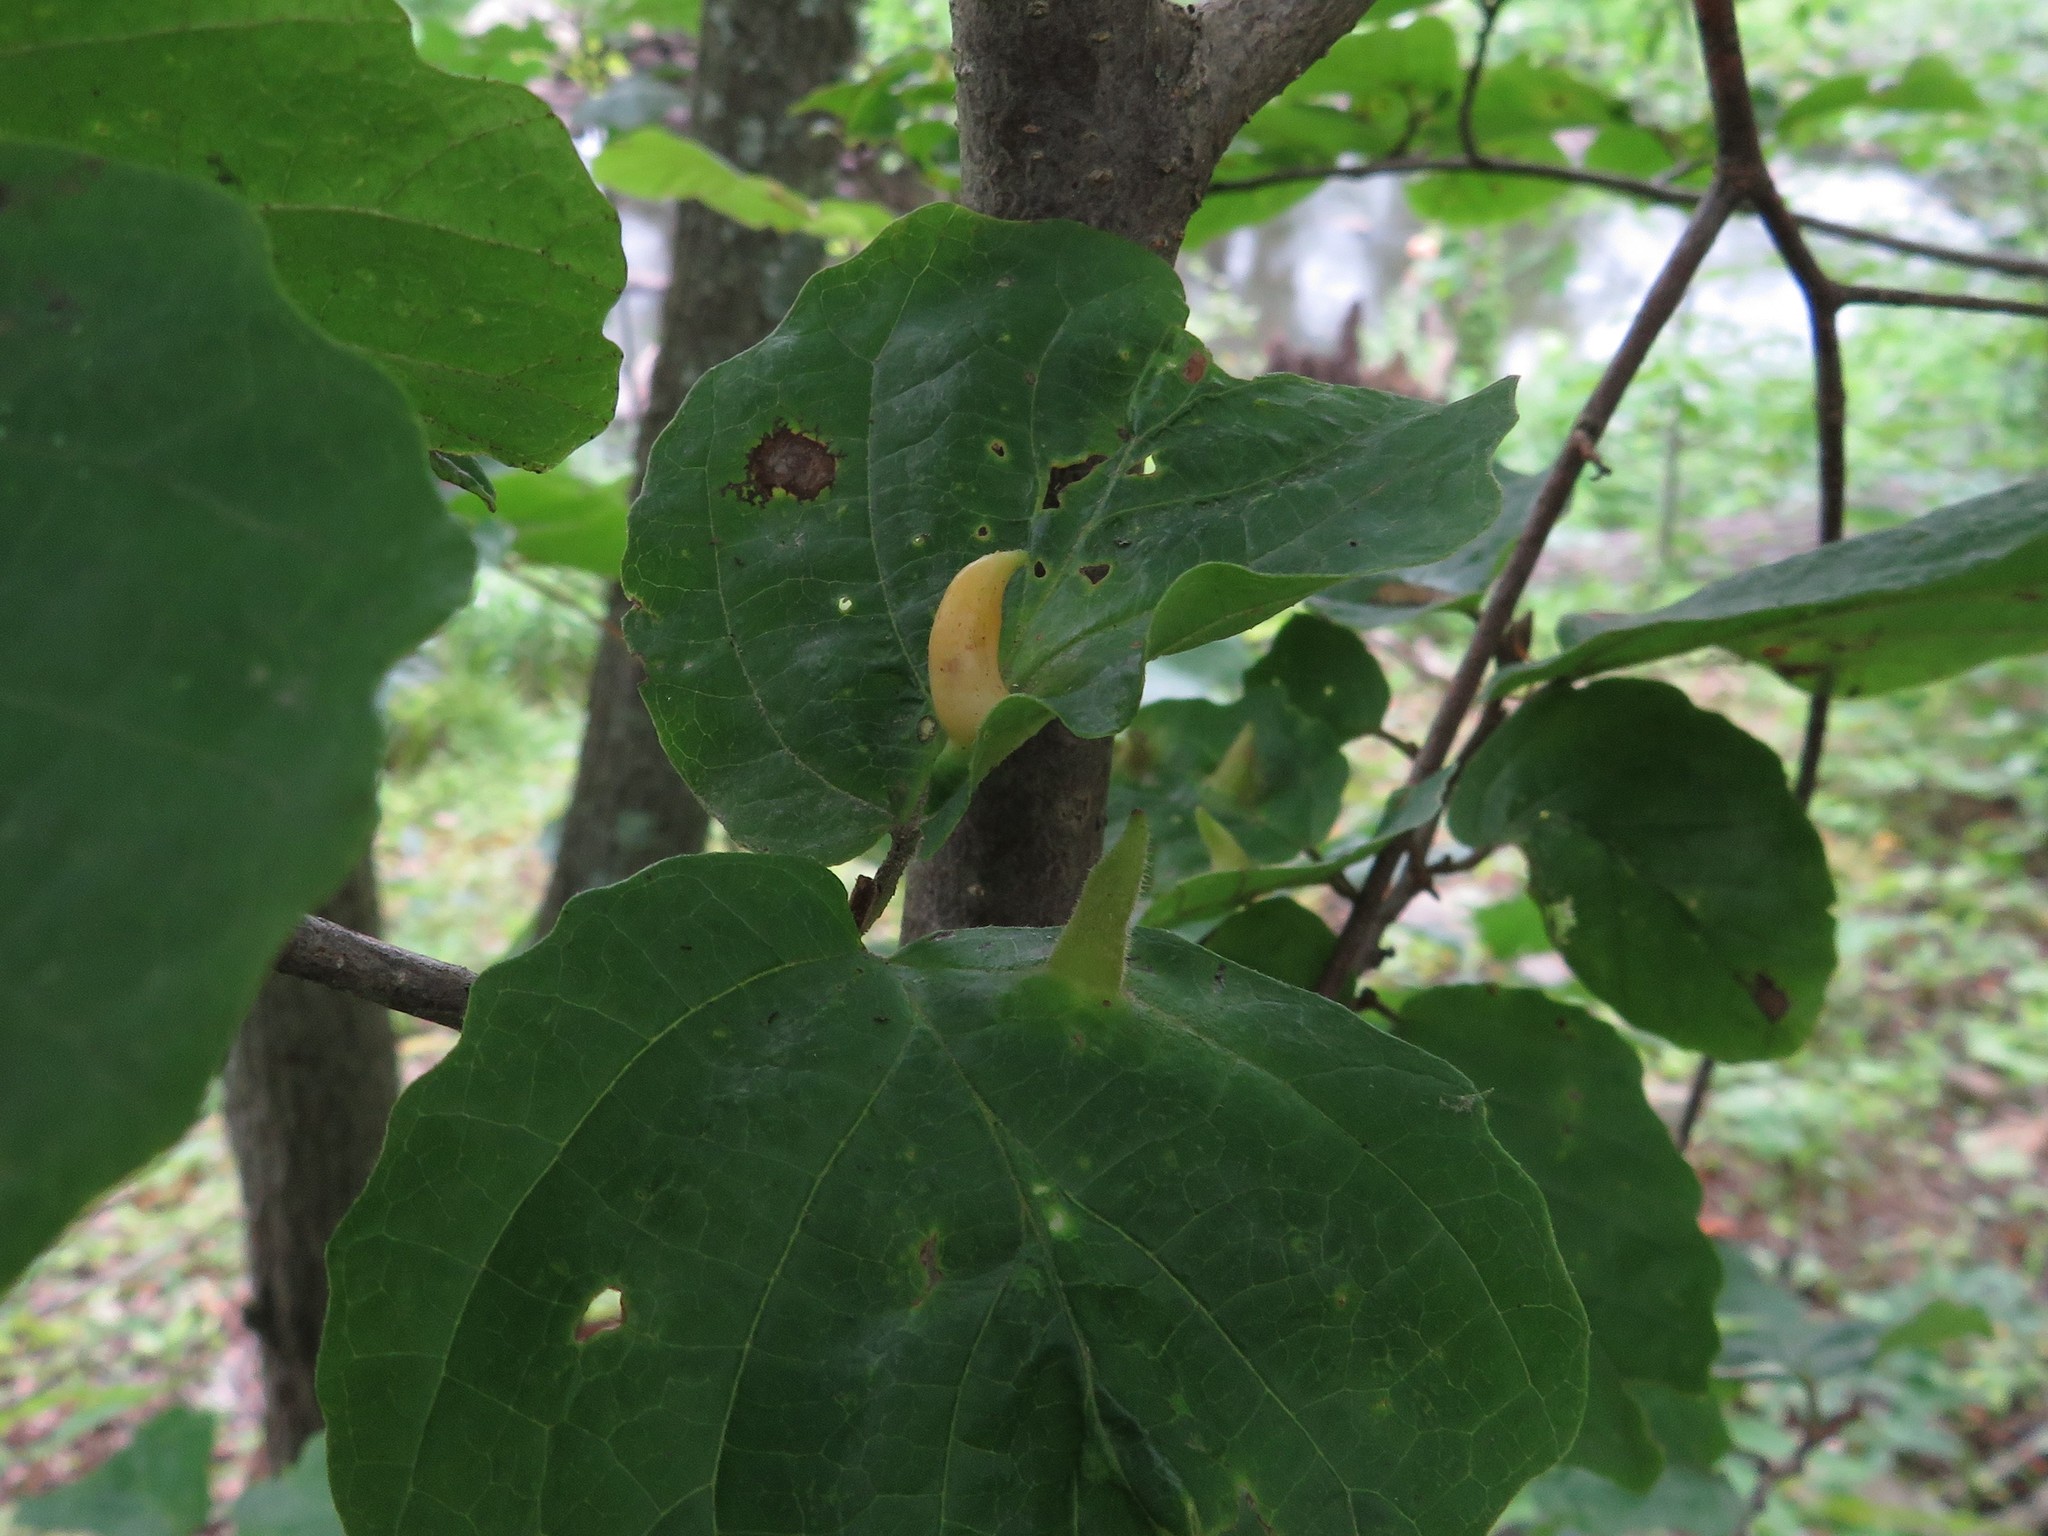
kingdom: Animalia
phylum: Arthropoda
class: Insecta
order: Hemiptera
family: Aphididae
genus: Hormaphis
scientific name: Hormaphis hamamelidis
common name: Witch-hazel cone gall aphid
